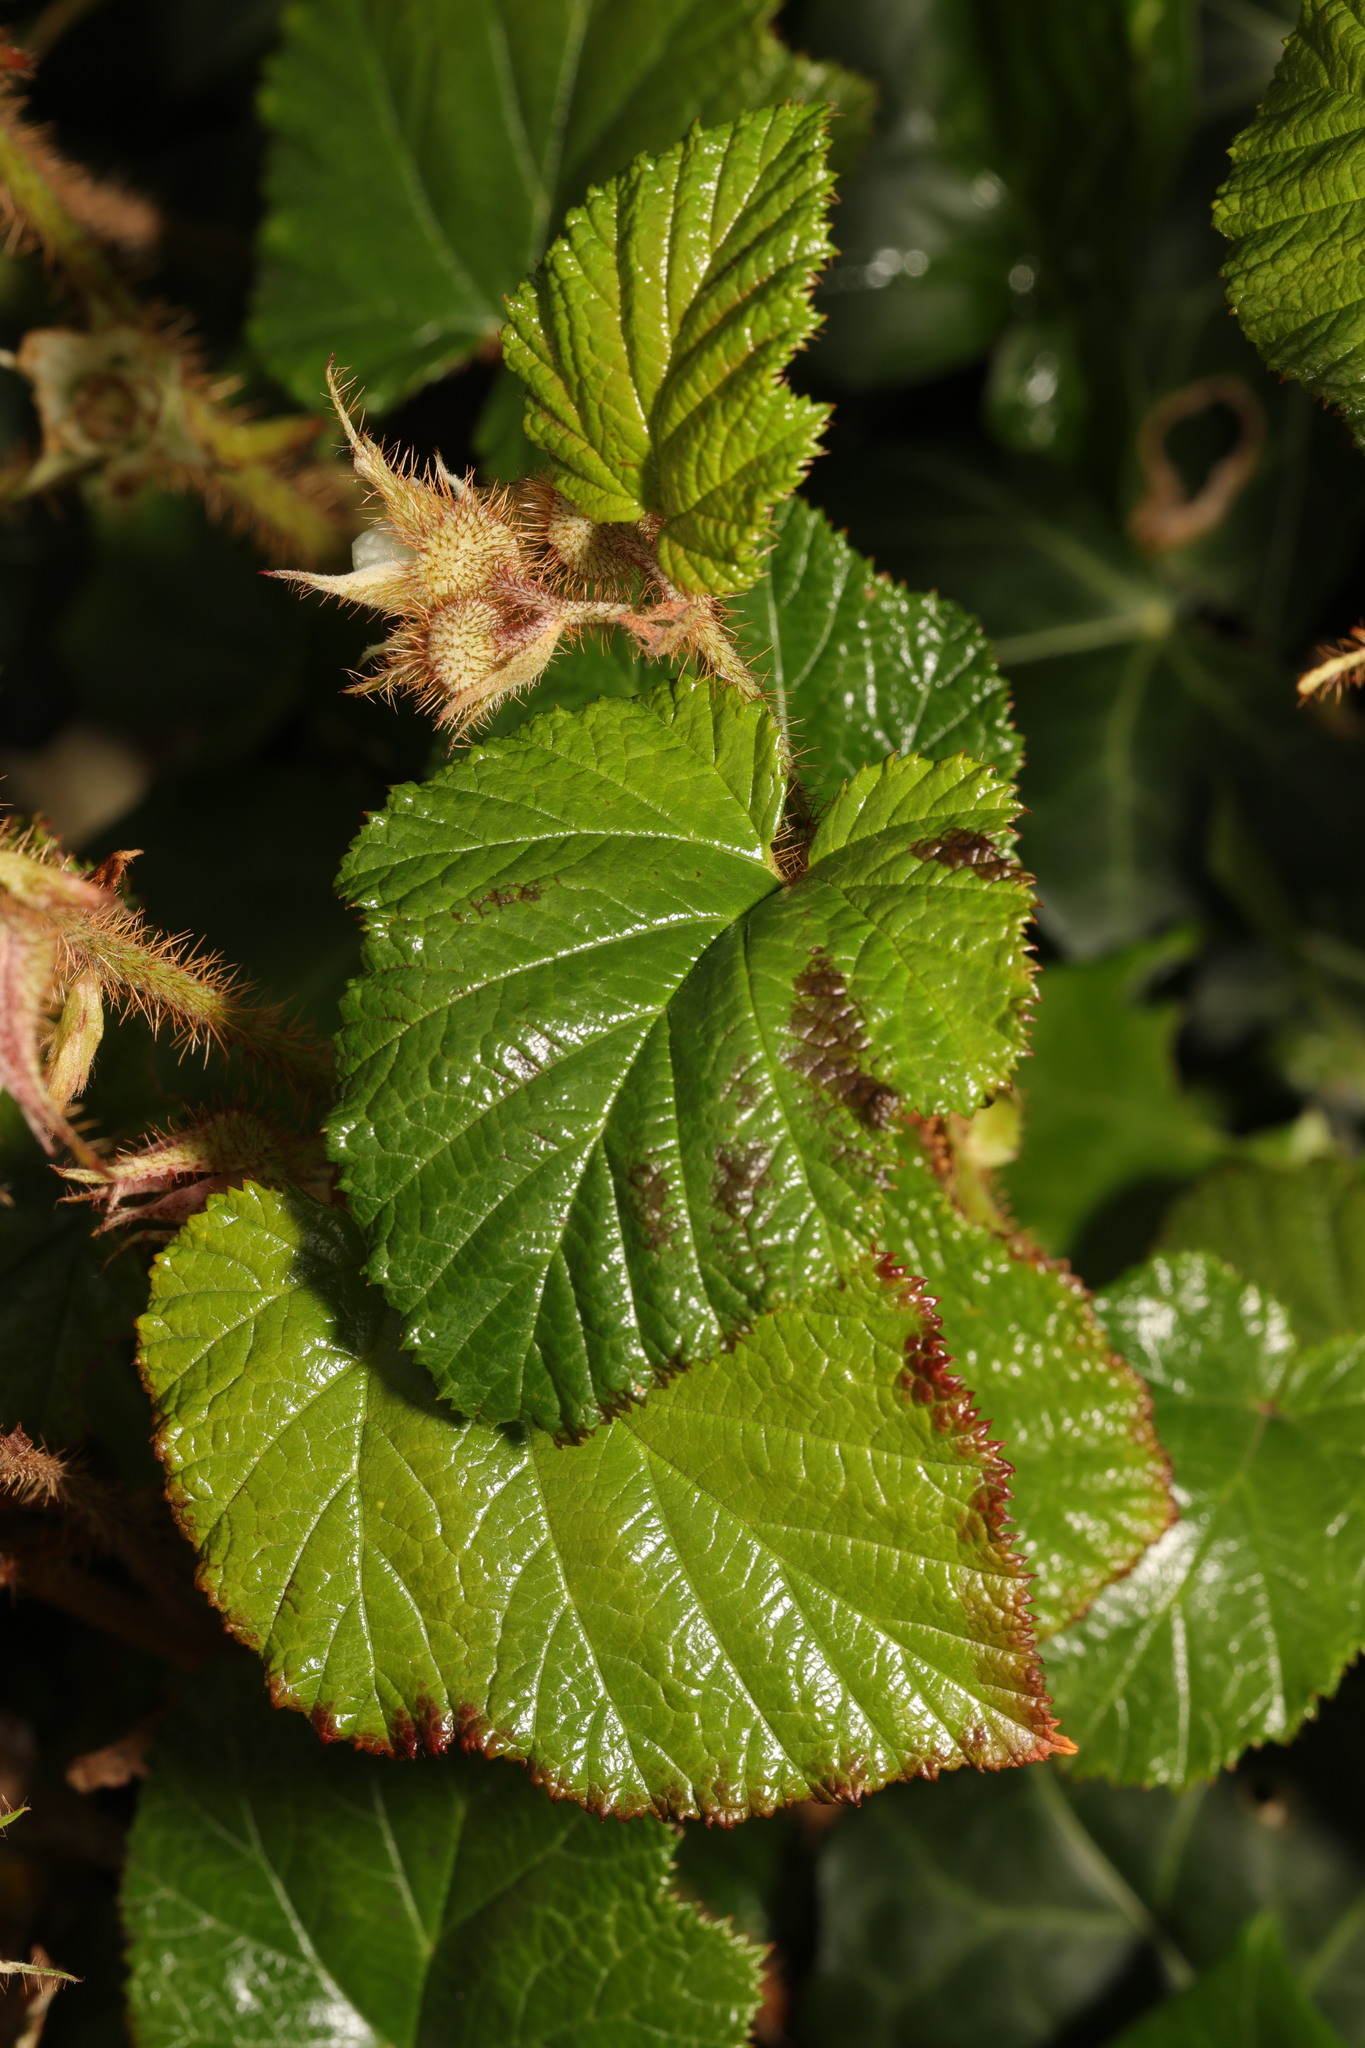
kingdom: Plantae
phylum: Tracheophyta
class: Magnoliopsida
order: Rosales
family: Rosaceae
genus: Rubus
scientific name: Rubus tricolor
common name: Chinese bramble
